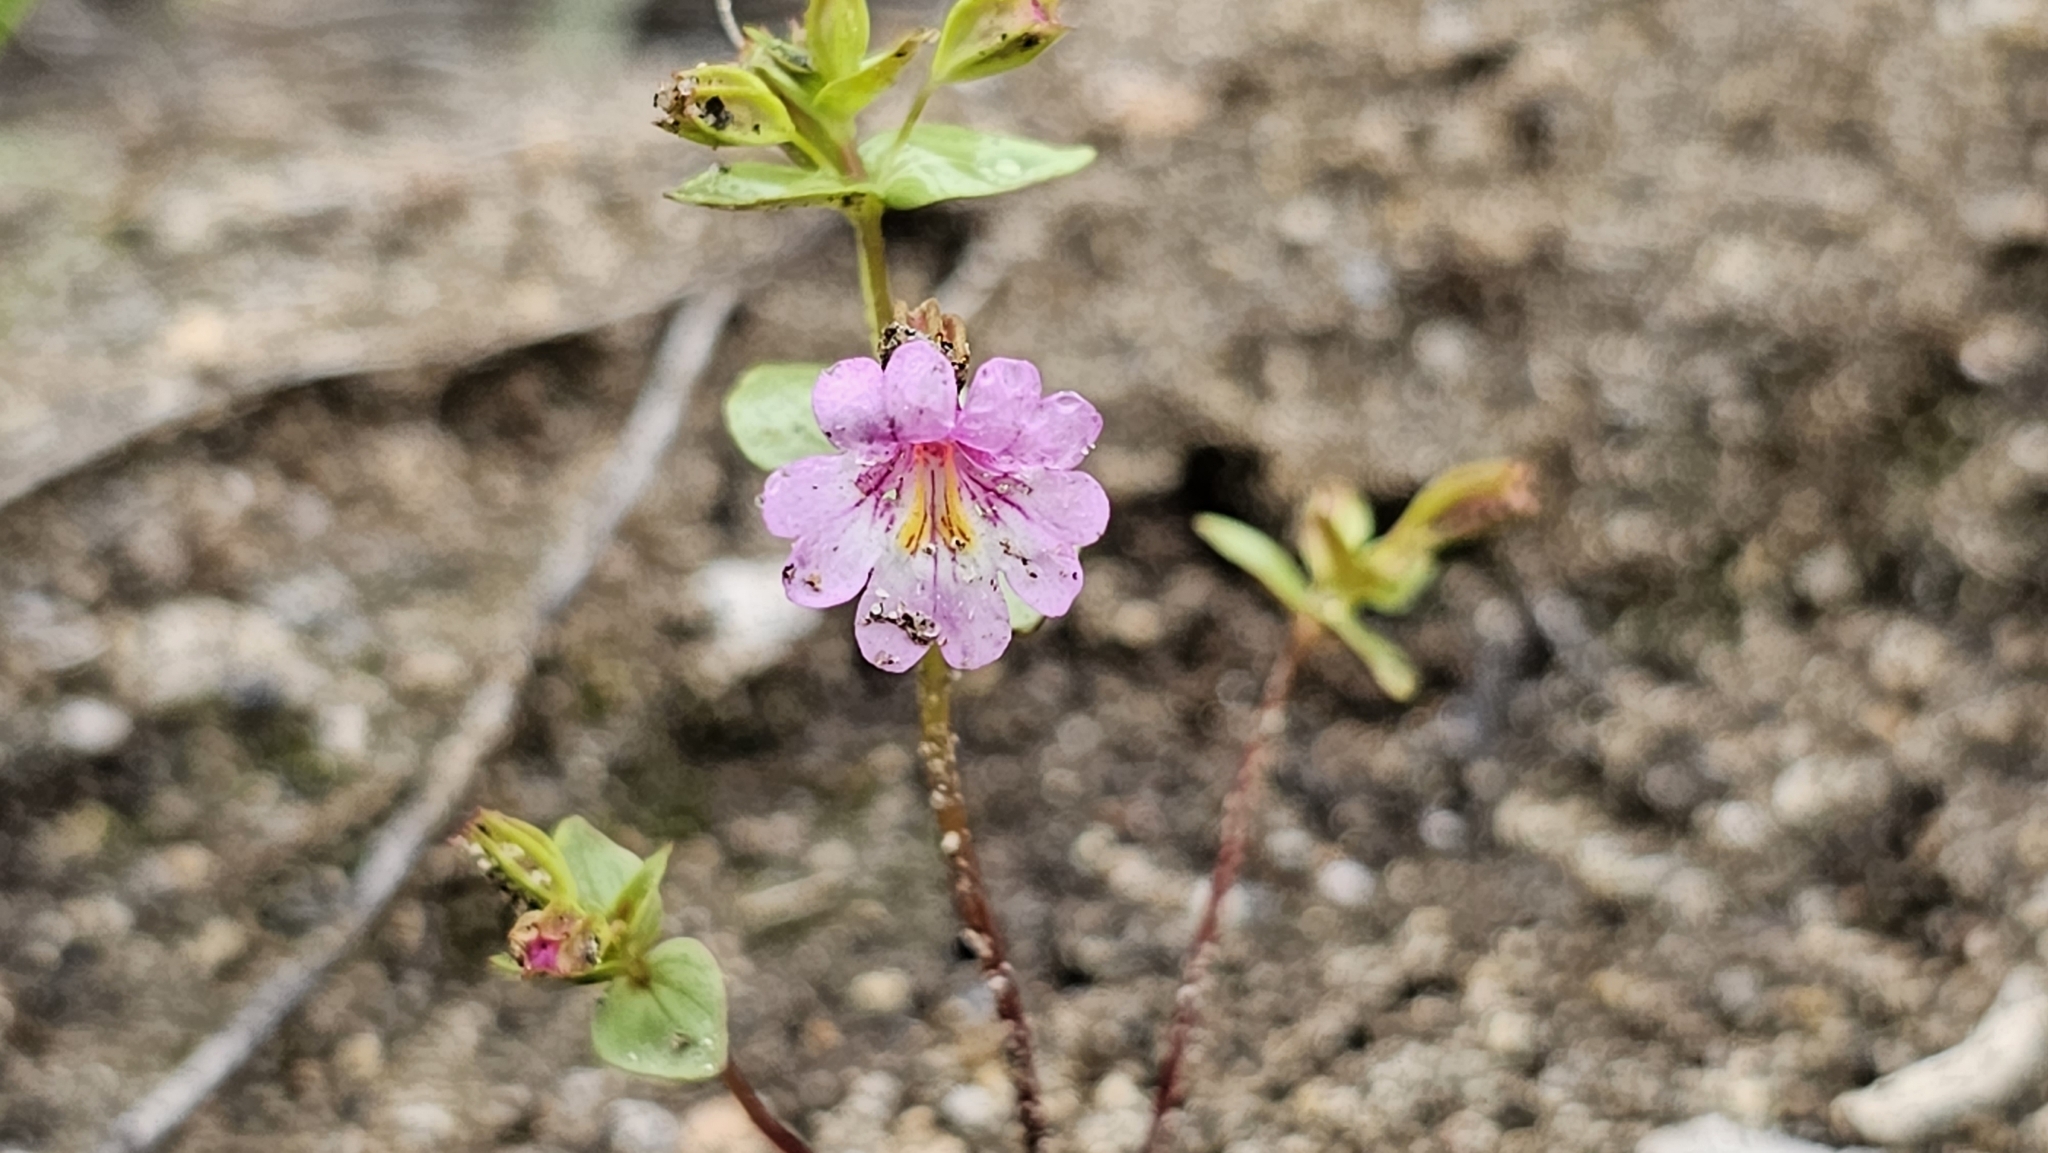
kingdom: Plantae
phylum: Tracheophyta
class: Magnoliopsida
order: Lamiales
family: Phrymaceae
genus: Erythranthe
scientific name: Erythranthe acutidens
